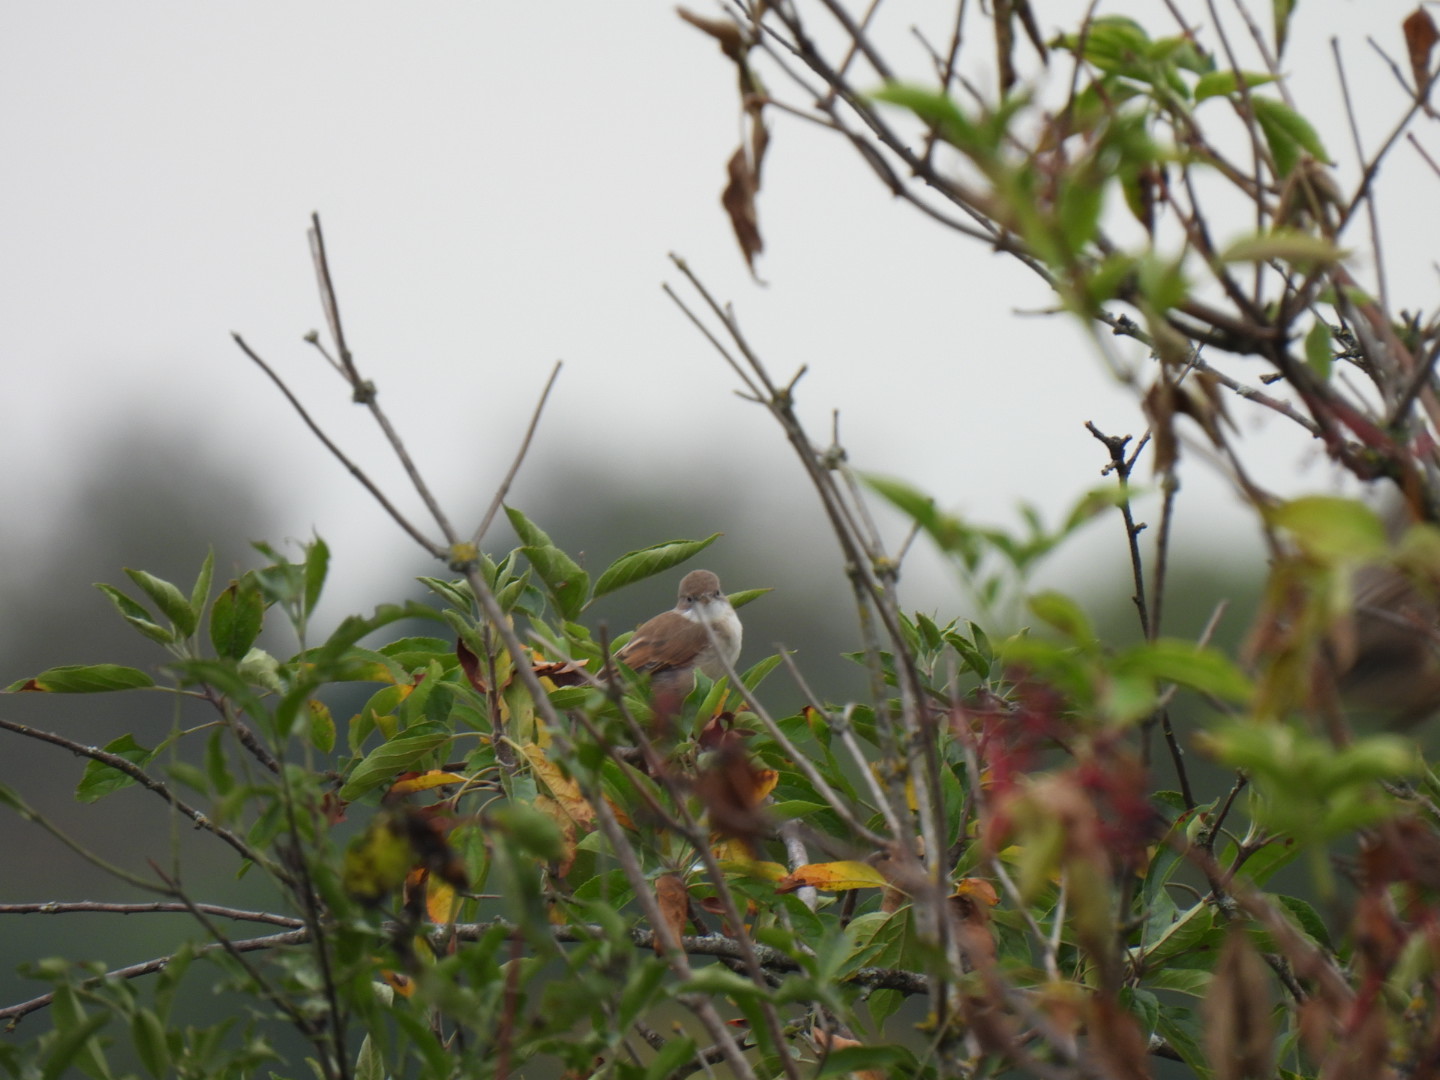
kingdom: Animalia
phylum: Chordata
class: Aves
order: Passeriformes
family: Sylviidae
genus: Sylvia
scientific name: Sylvia communis
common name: Common whitethroat
